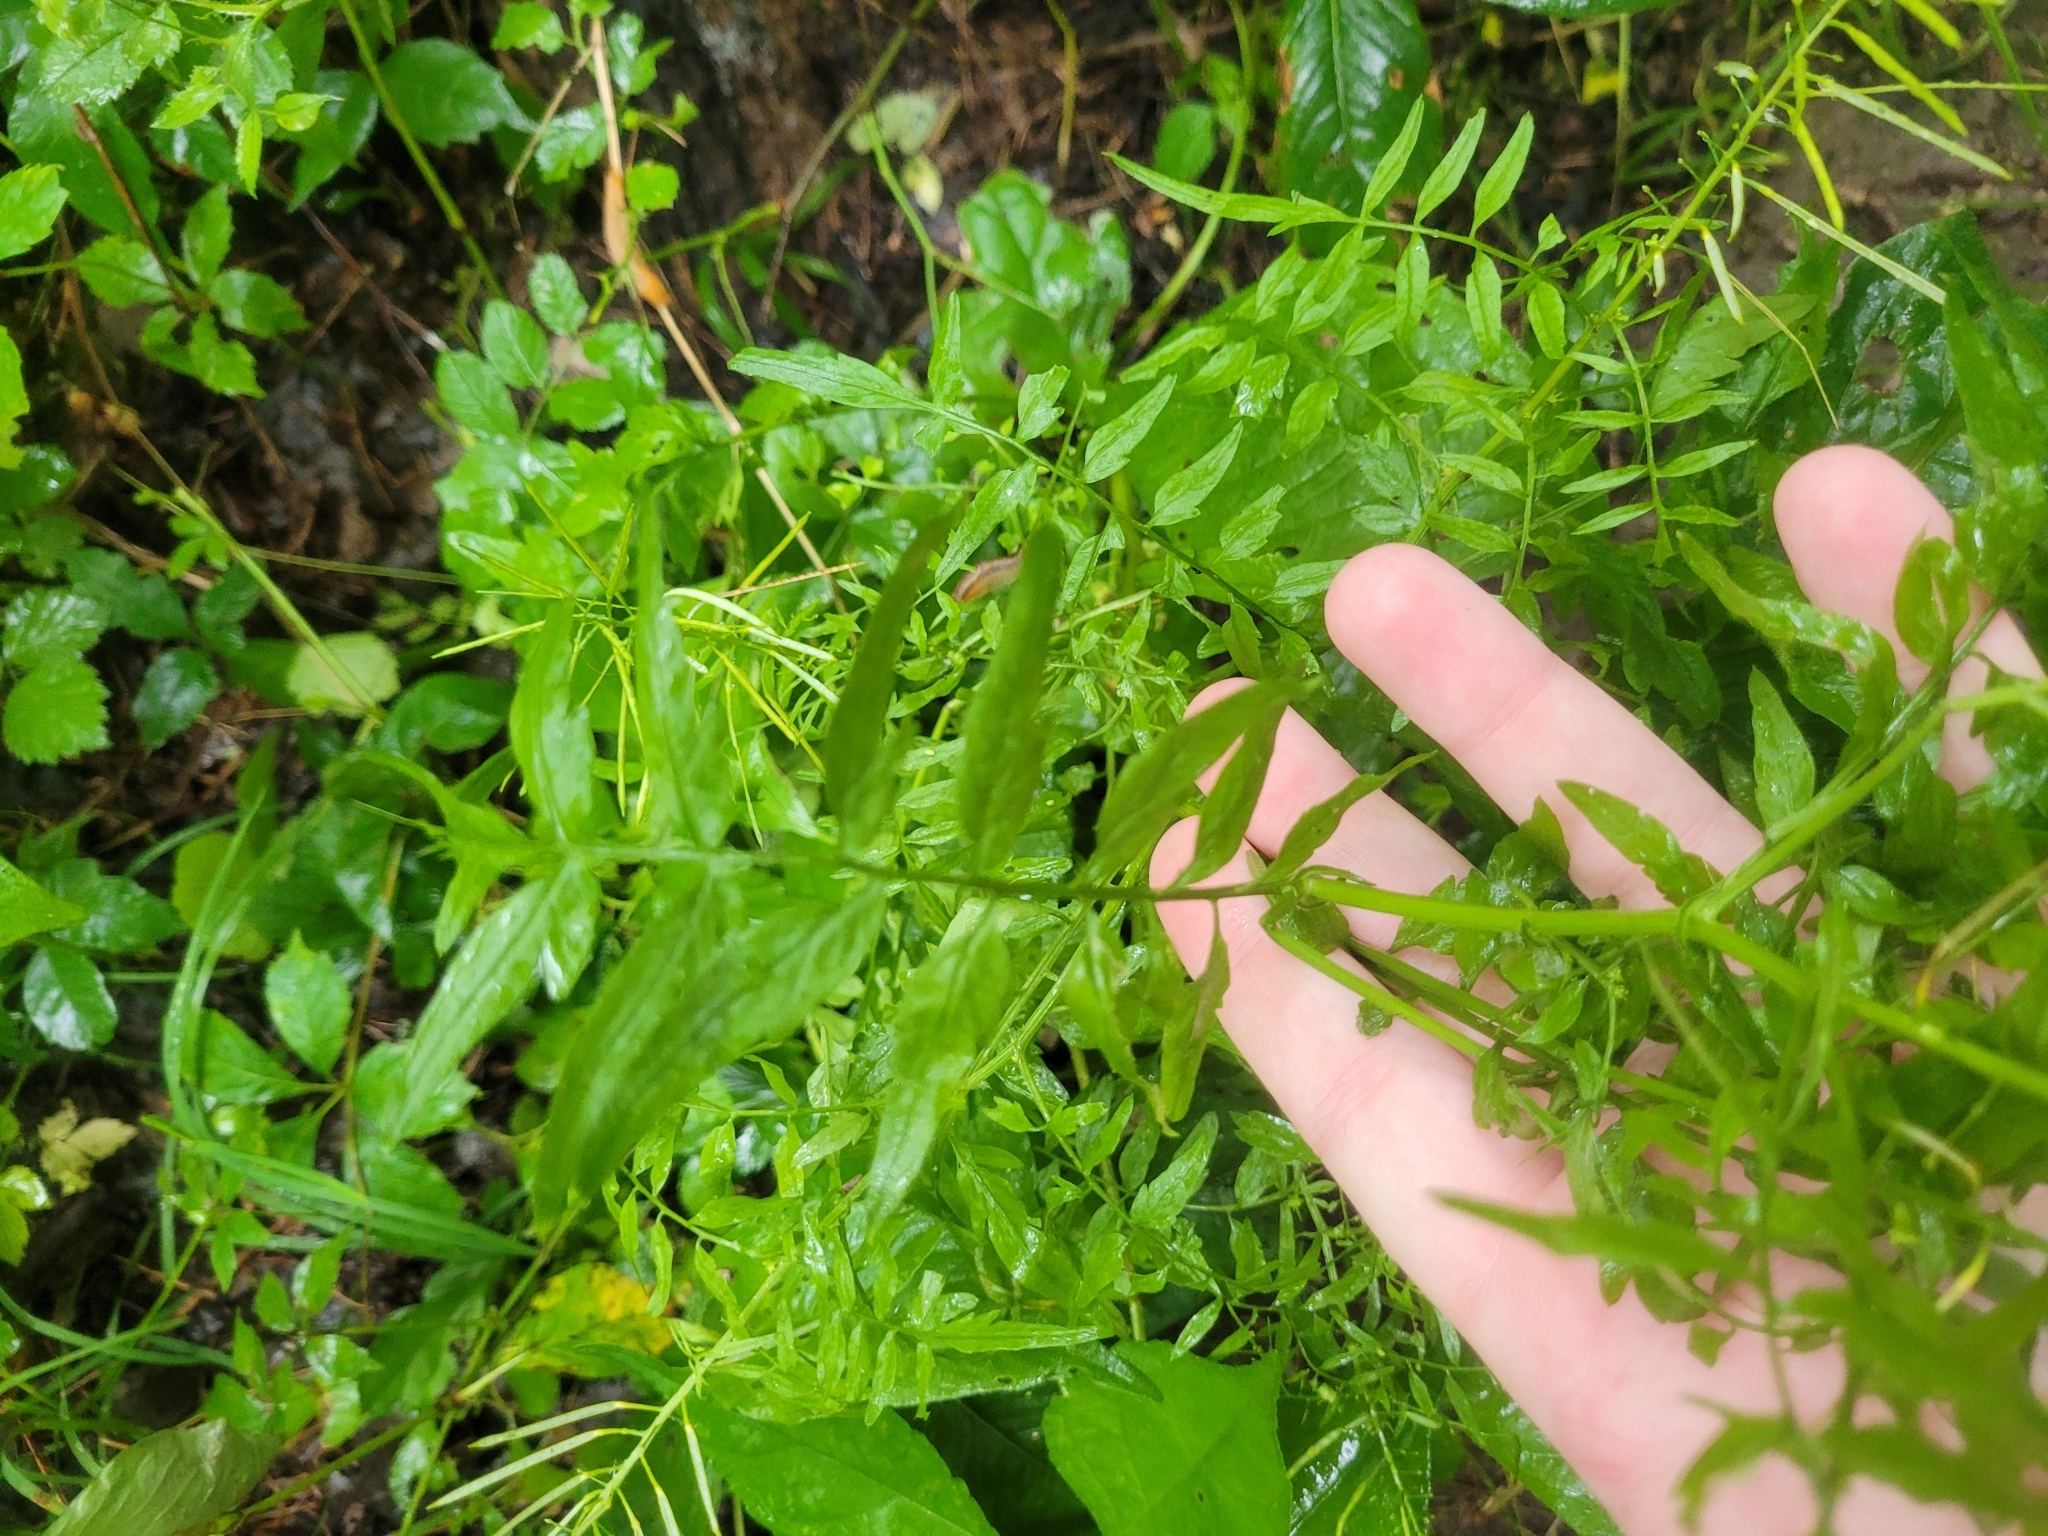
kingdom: Plantae
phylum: Tracheophyta
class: Magnoliopsida
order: Brassicales
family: Brassicaceae
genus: Cardamine
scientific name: Cardamine impatiens
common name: Narrow-leaved bitter-cress
